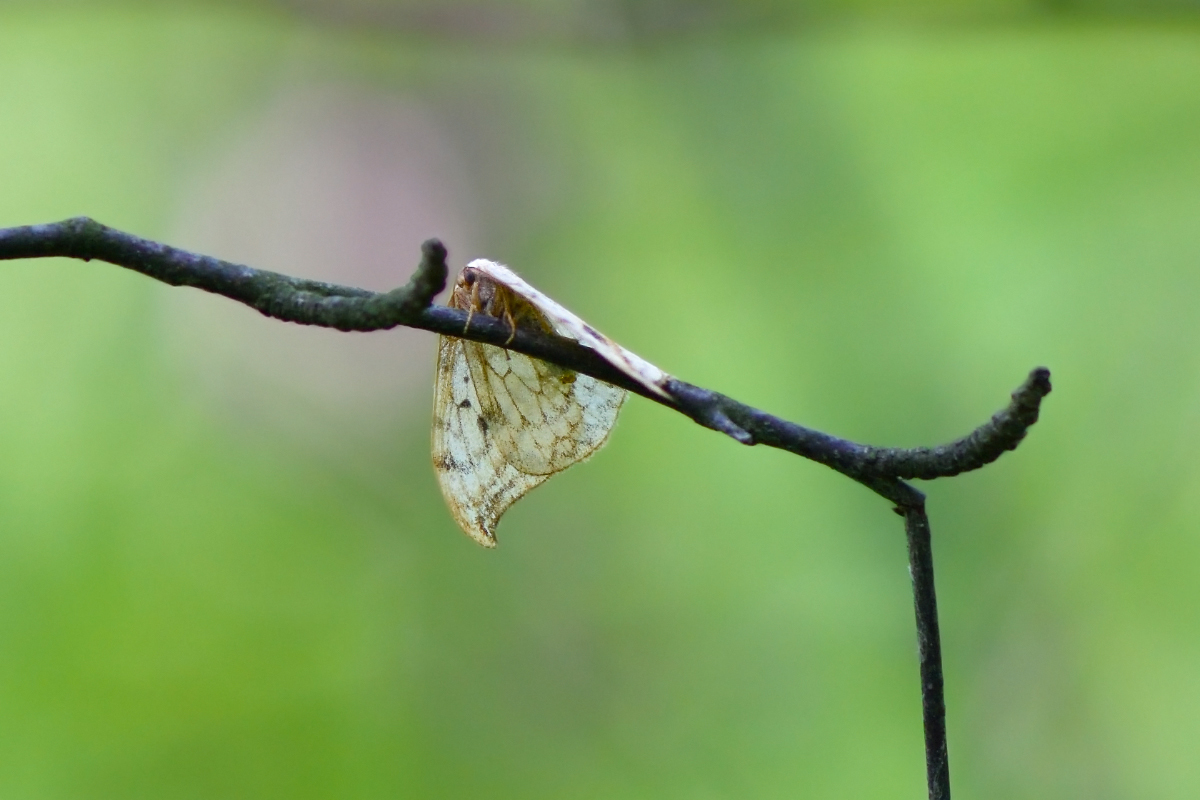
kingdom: Animalia
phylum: Arthropoda
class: Insecta
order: Lepidoptera
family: Drepanidae
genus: Drepana
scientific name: Drepana falcataria
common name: Pebble hook-tip
